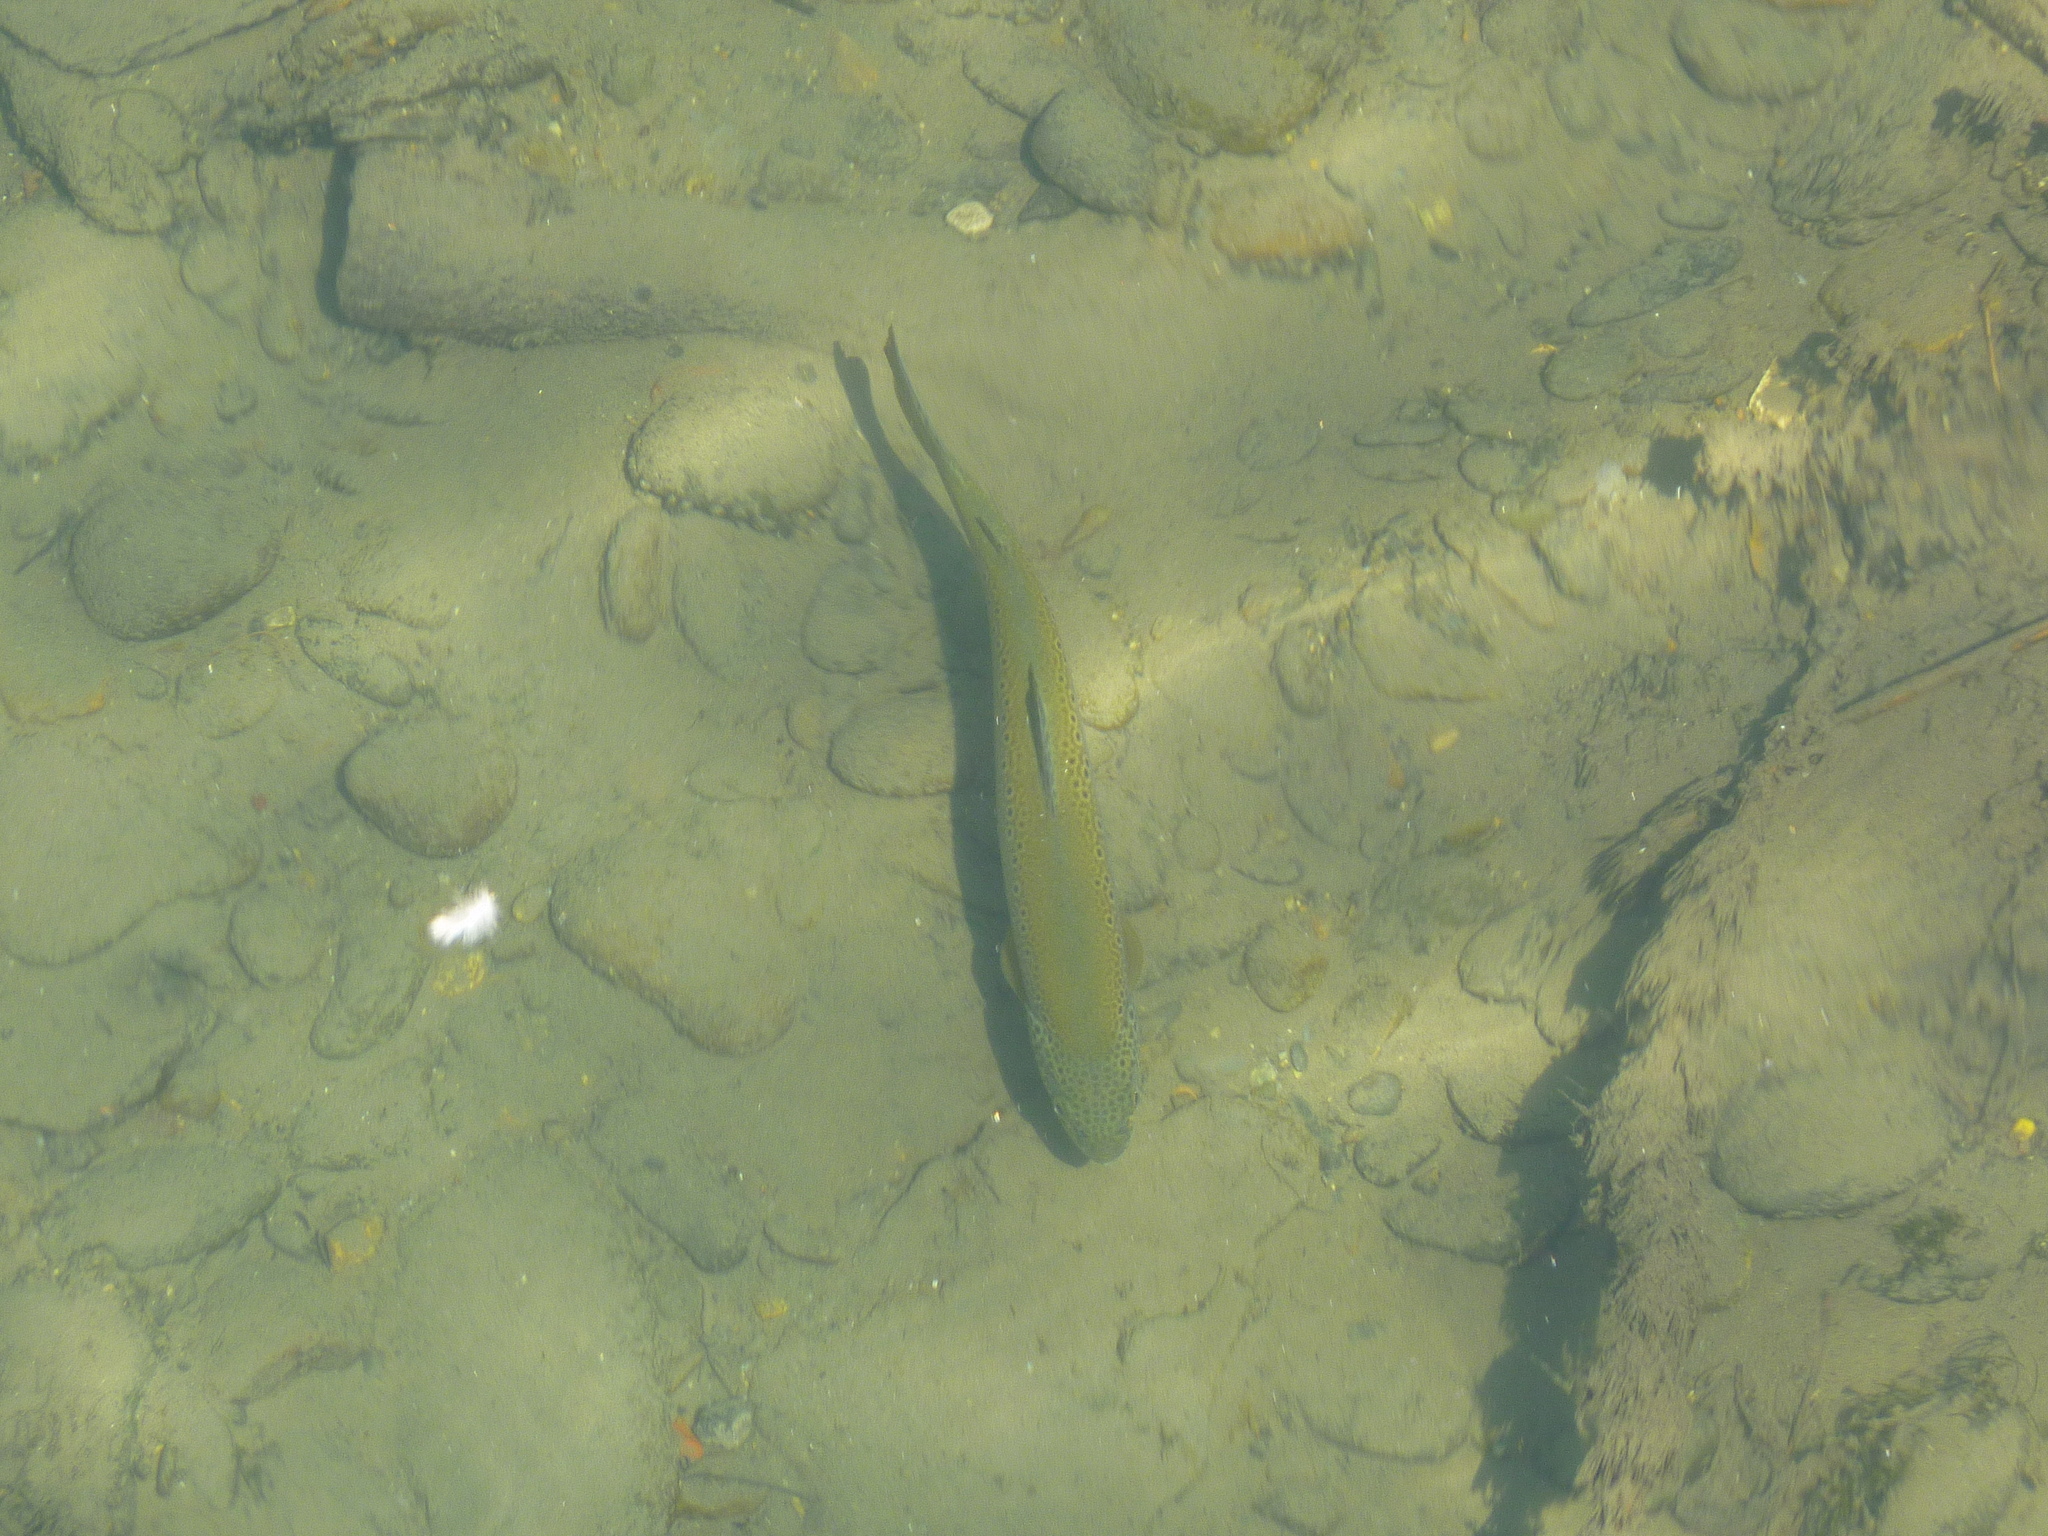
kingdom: Animalia
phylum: Chordata
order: Salmoniformes
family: Salmonidae
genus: Salmo
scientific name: Salmo trutta
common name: Brown trout
